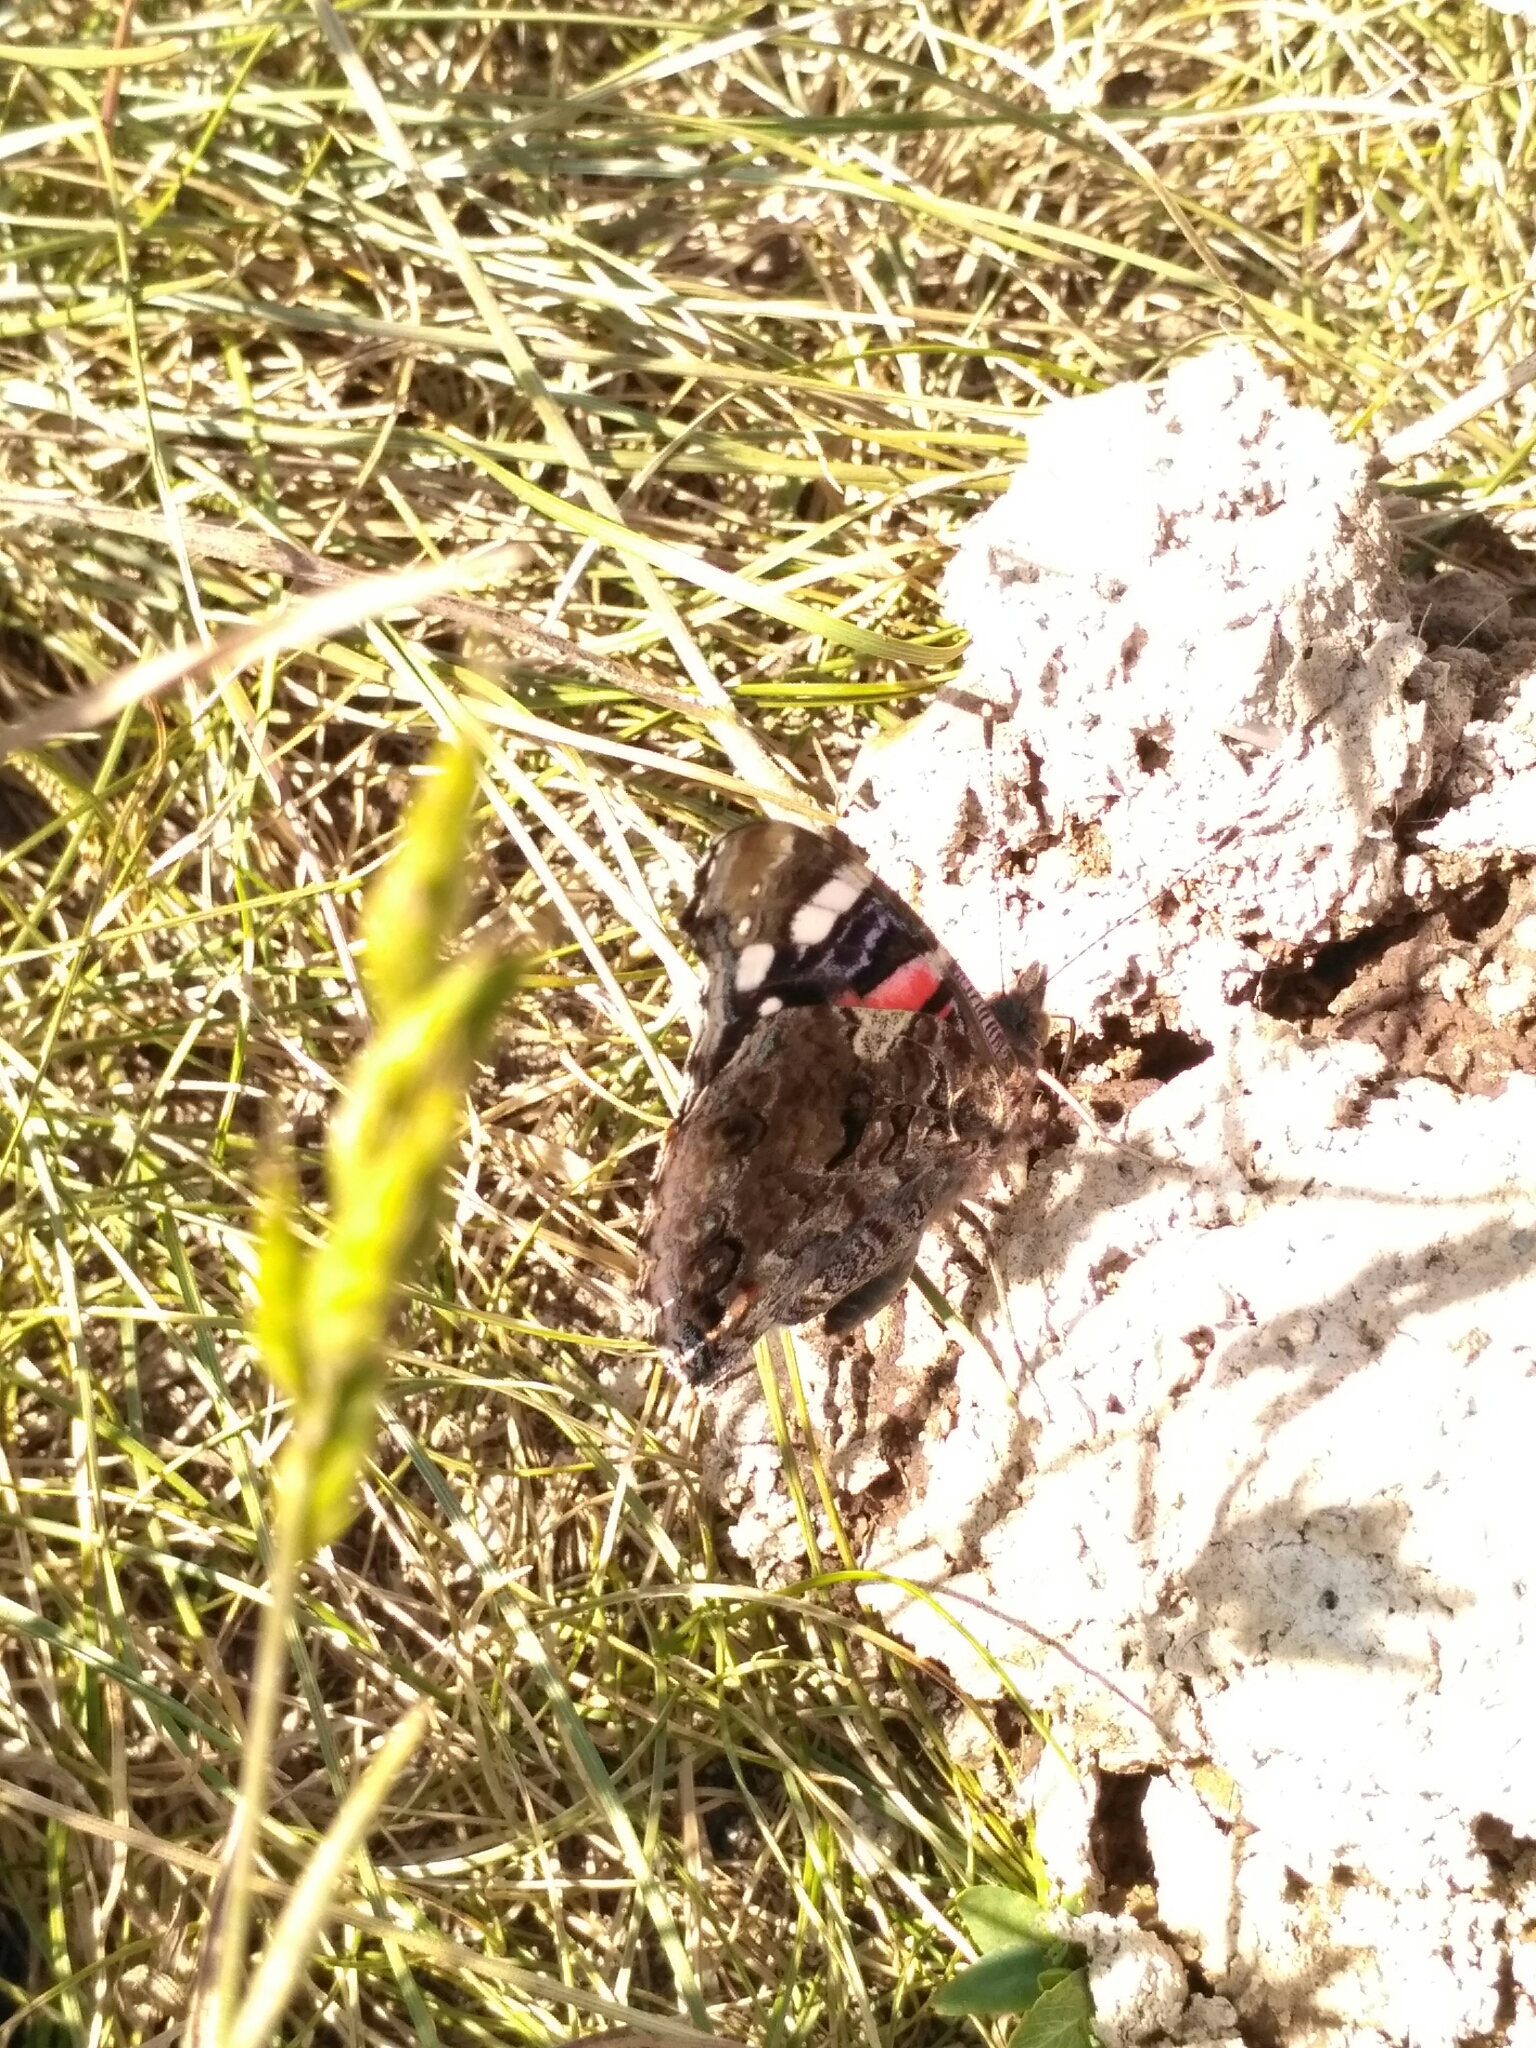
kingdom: Animalia
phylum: Arthropoda
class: Insecta
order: Lepidoptera
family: Nymphalidae
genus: Vanessa
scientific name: Vanessa atalanta
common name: Red admiral
